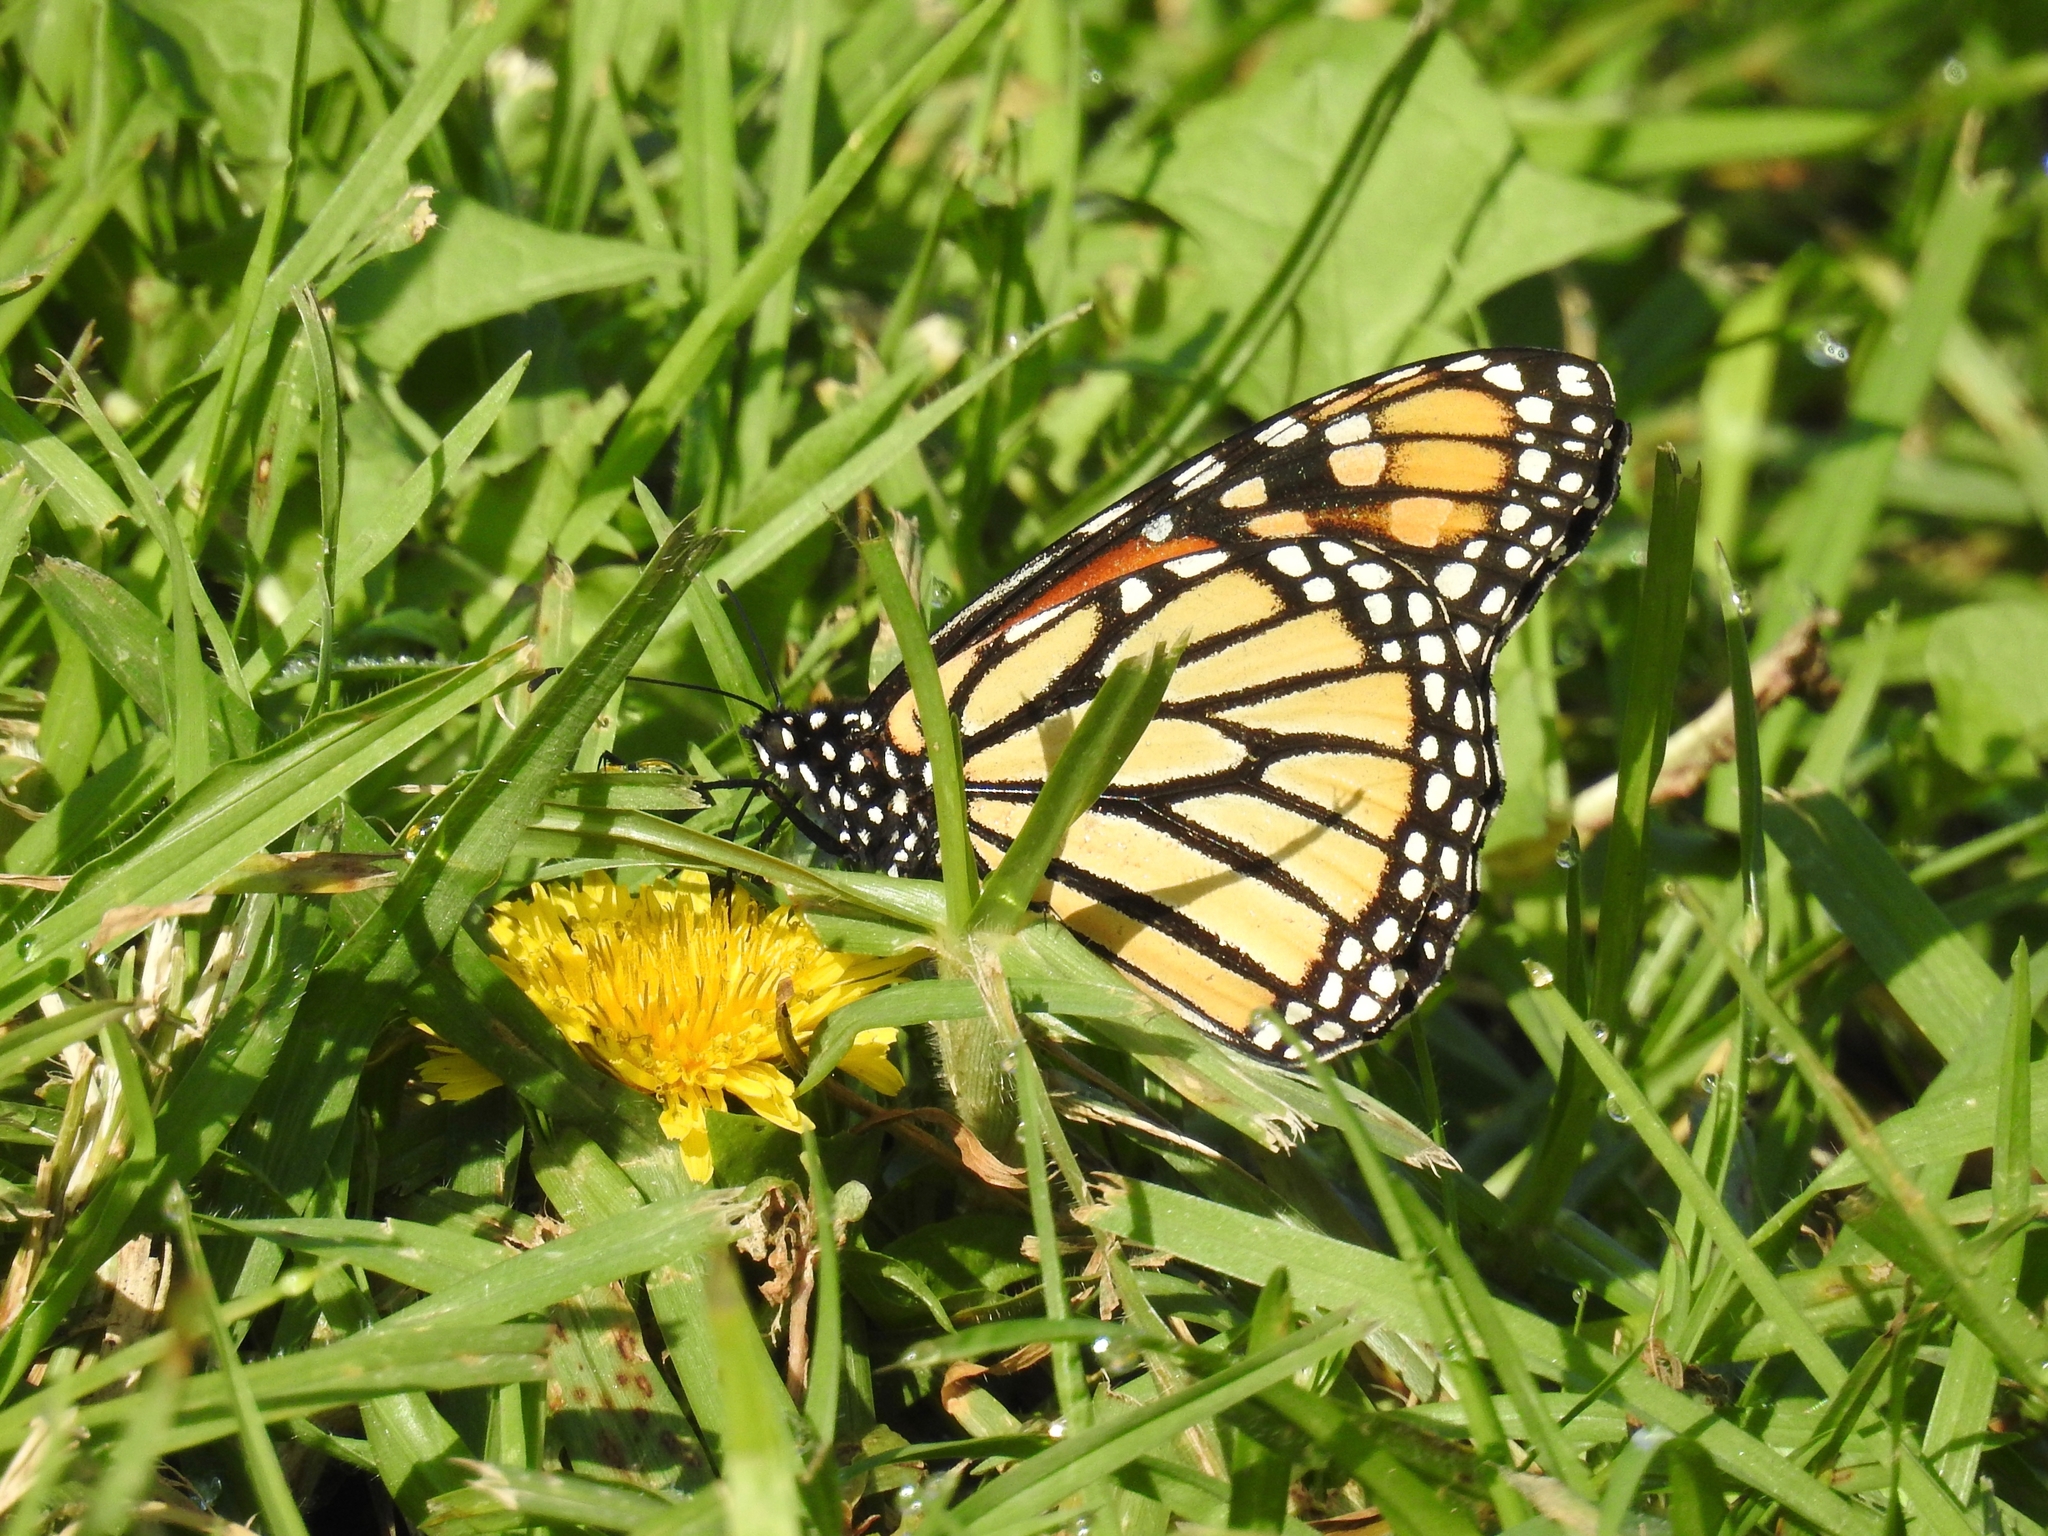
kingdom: Animalia
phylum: Arthropoda
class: Insecta
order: Lepidoptera
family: Nymphalidae
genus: Danaus
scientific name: Danaus plexippus
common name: Monarch
